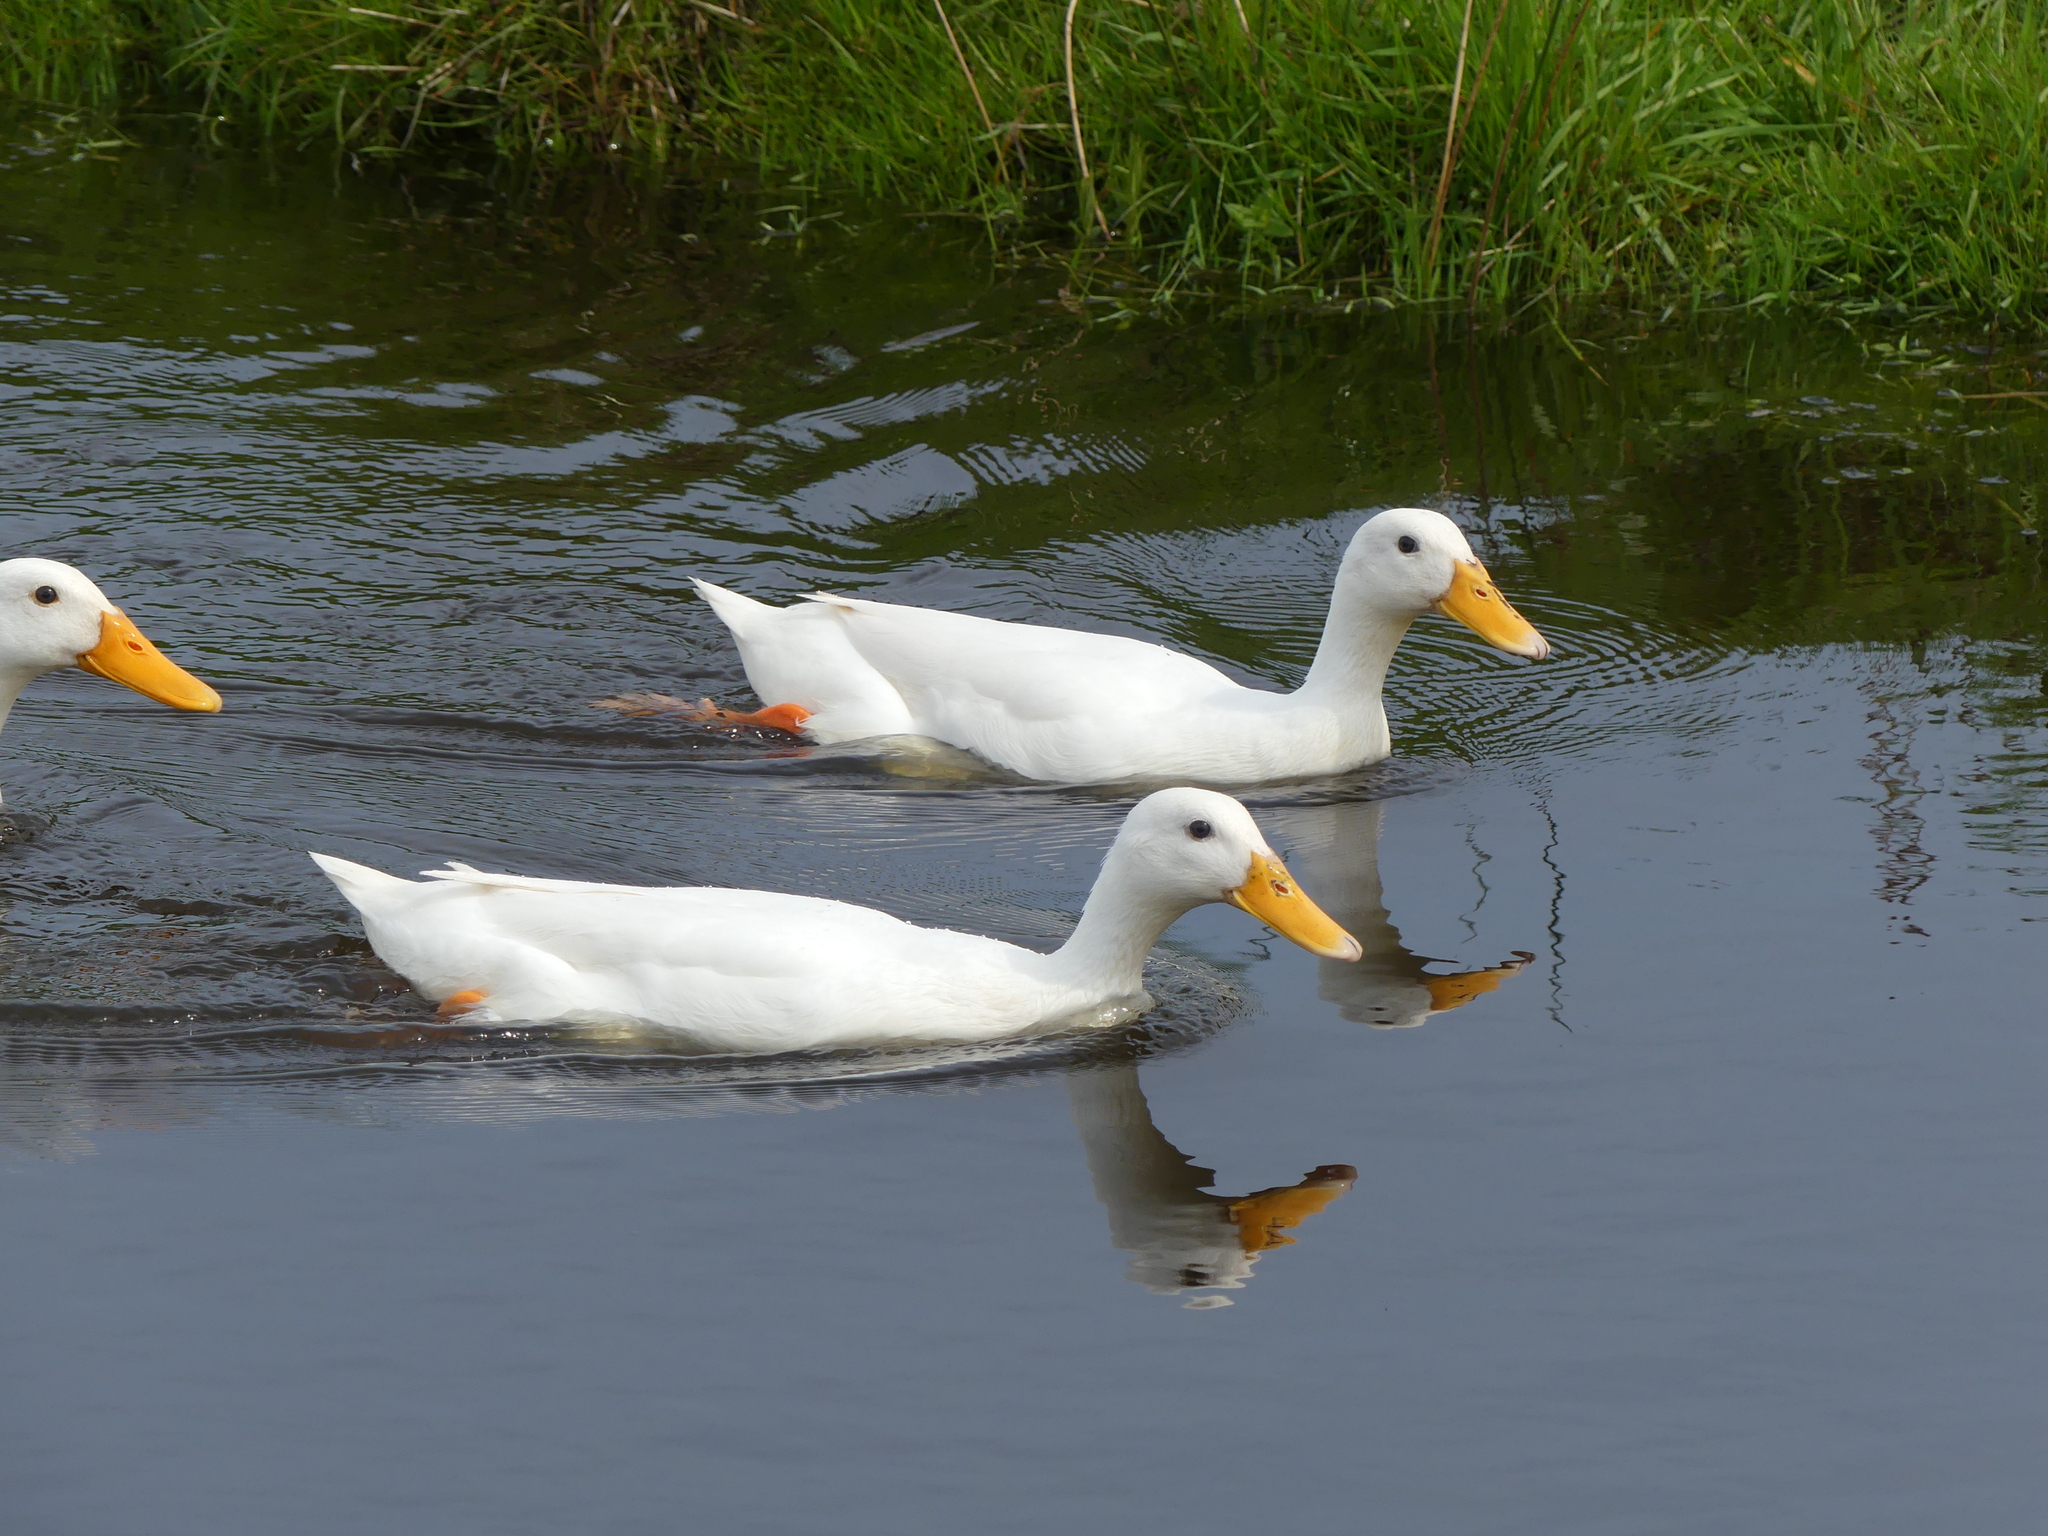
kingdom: Animalia
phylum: Chordata
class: Aves
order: Anseriformes
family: Anatidae
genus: Anas
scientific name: Anas platyrhynchos
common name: Mallard
